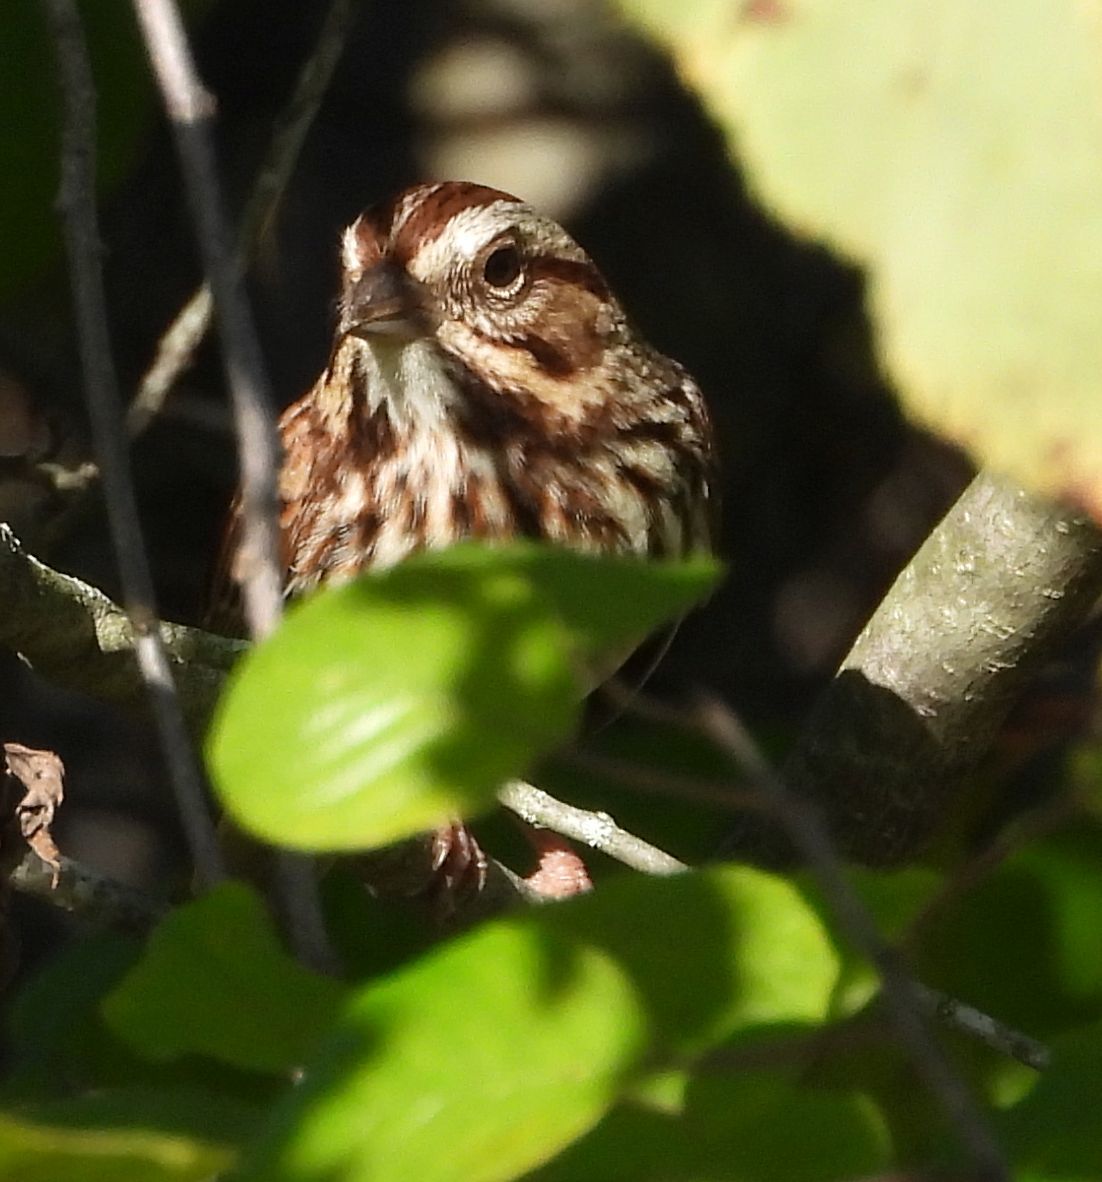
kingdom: Animalia
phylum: Chordata
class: Aves
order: Passeriformes
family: Passerellidae
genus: Melospiza
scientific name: Melospiza melodia
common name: Song sparrow
